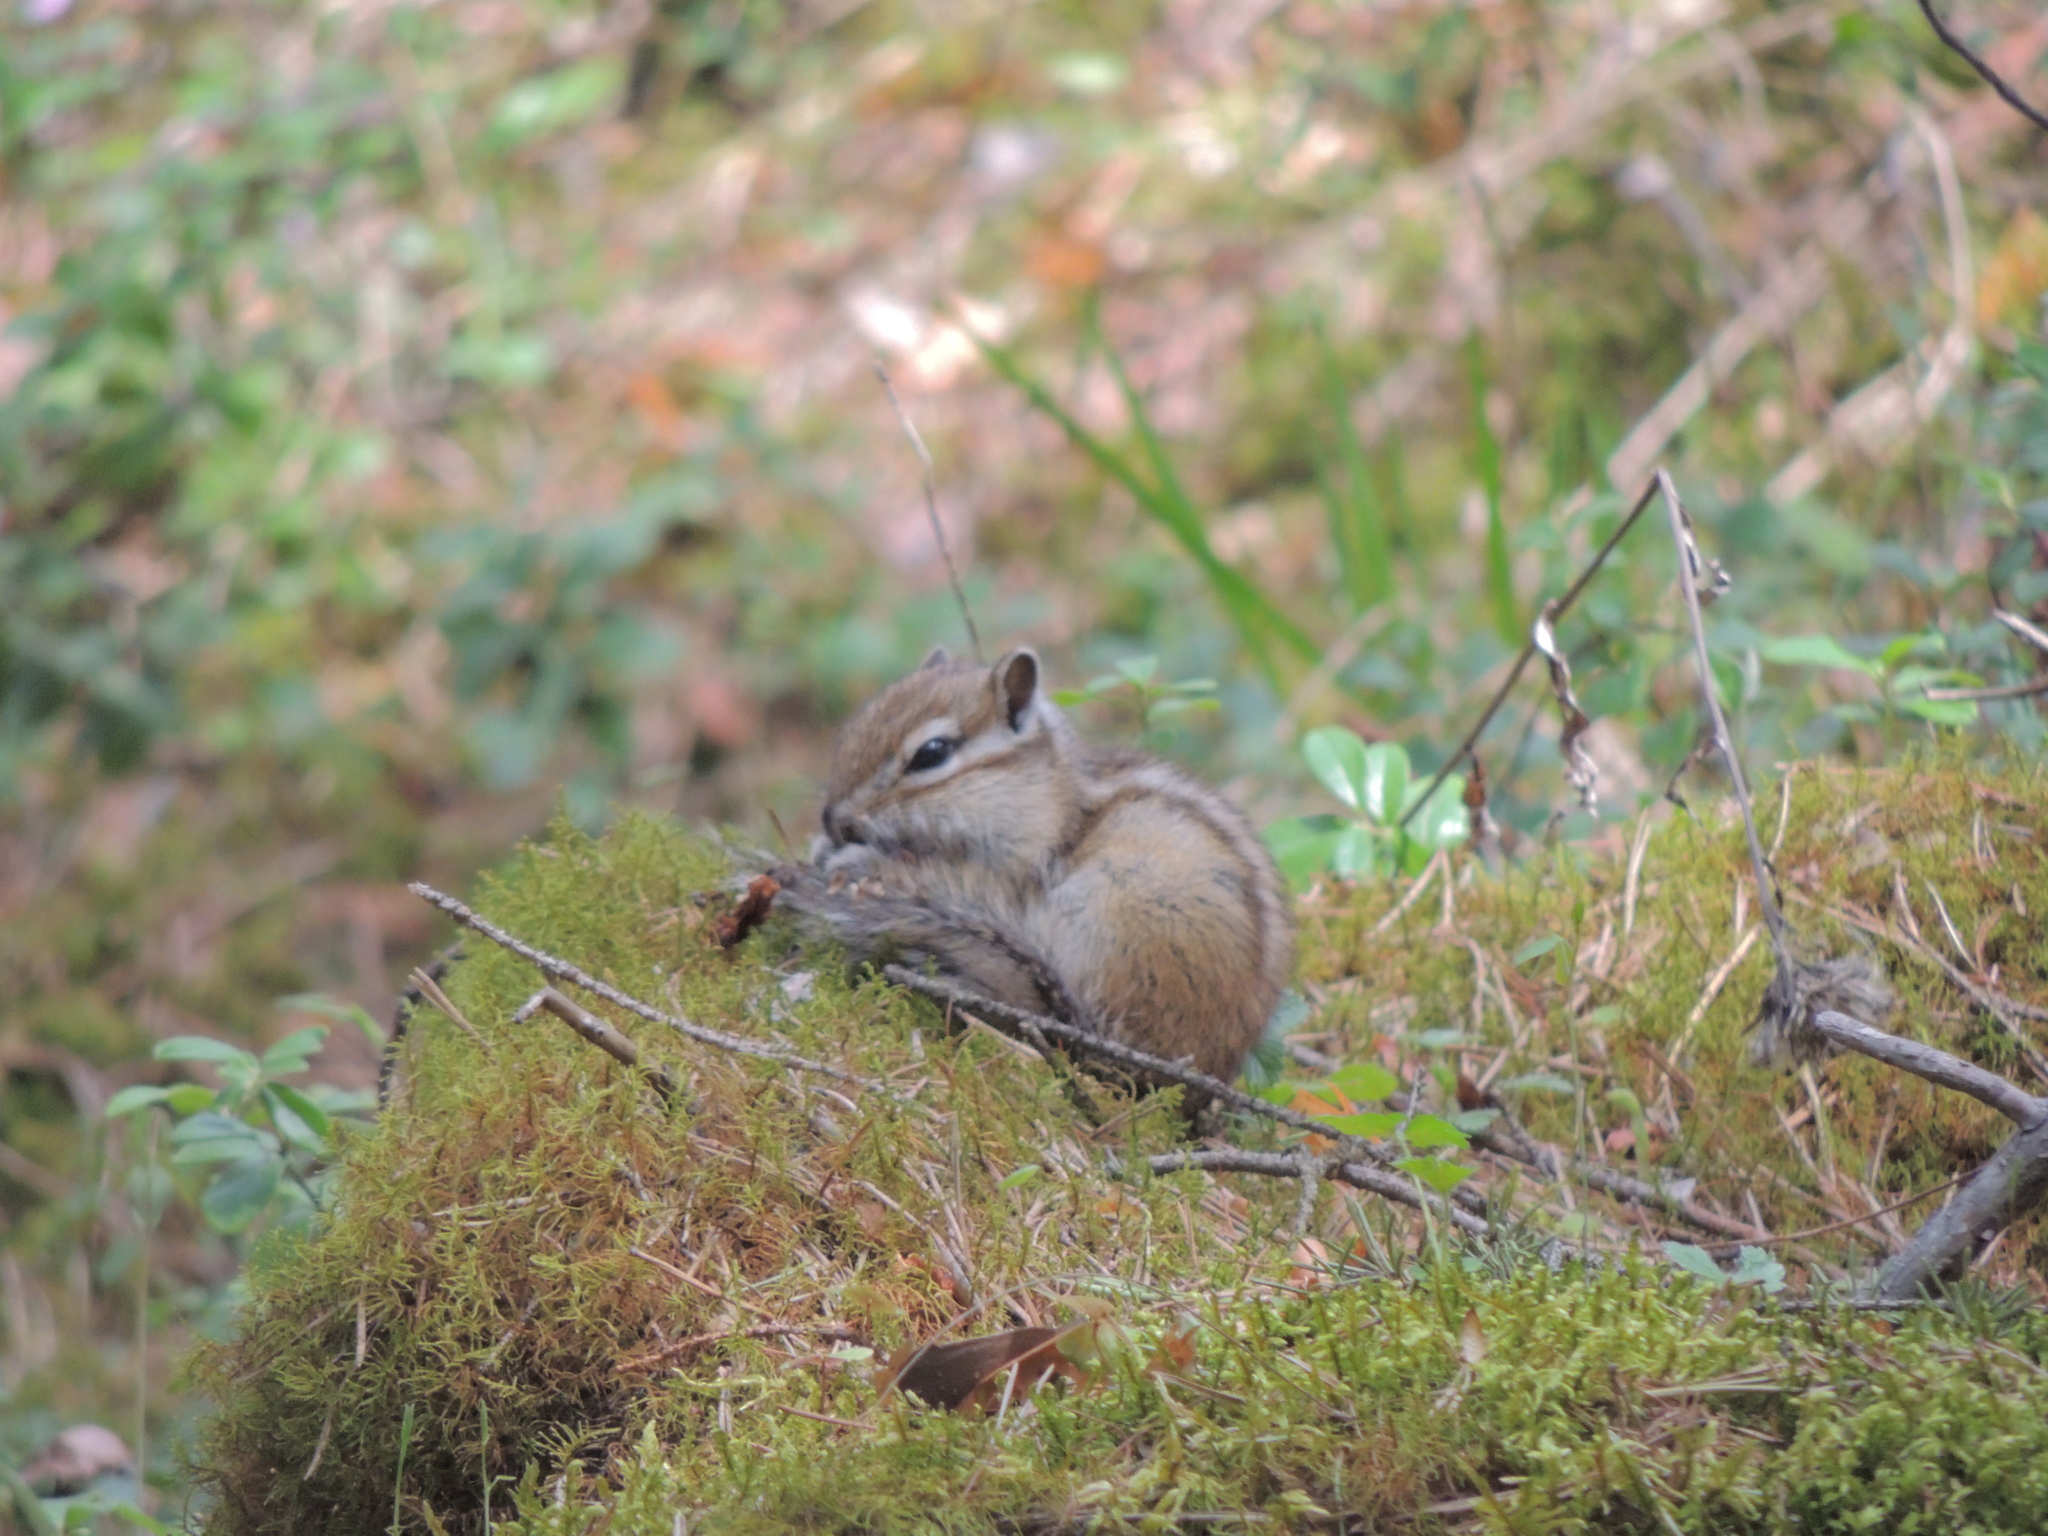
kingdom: Animalia
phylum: Chordata
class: Mammalia
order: Rodentia
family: Sciuridae
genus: Tamias
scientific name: Tamias sibiricus
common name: Siberian chipmunk
